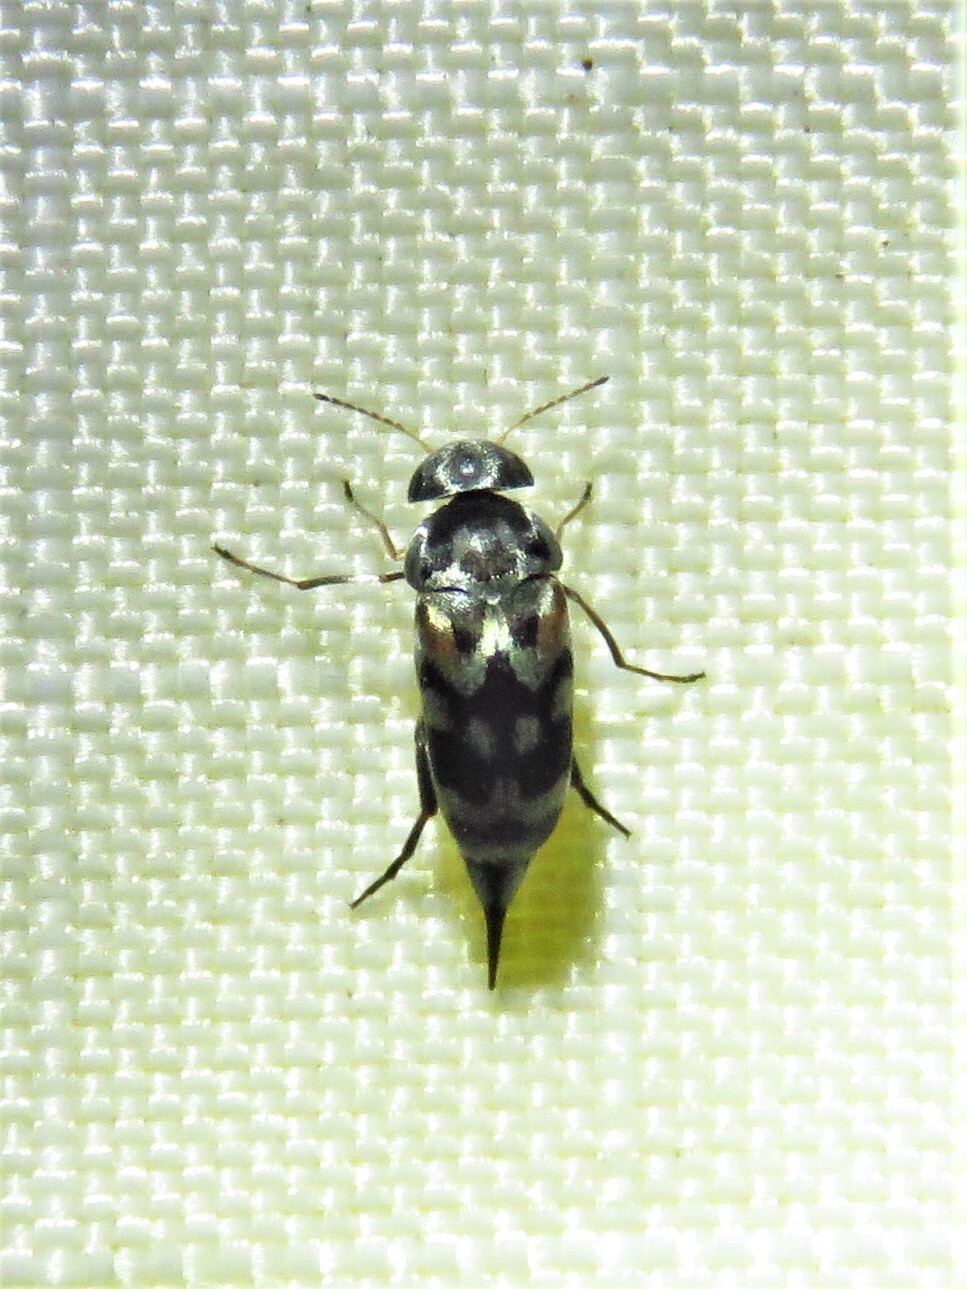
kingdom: Animalia
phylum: Arthropoda
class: Insecta
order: Coleoptera
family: Mordellidae
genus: Paramordellaria
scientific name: Paramordellaria carinata
